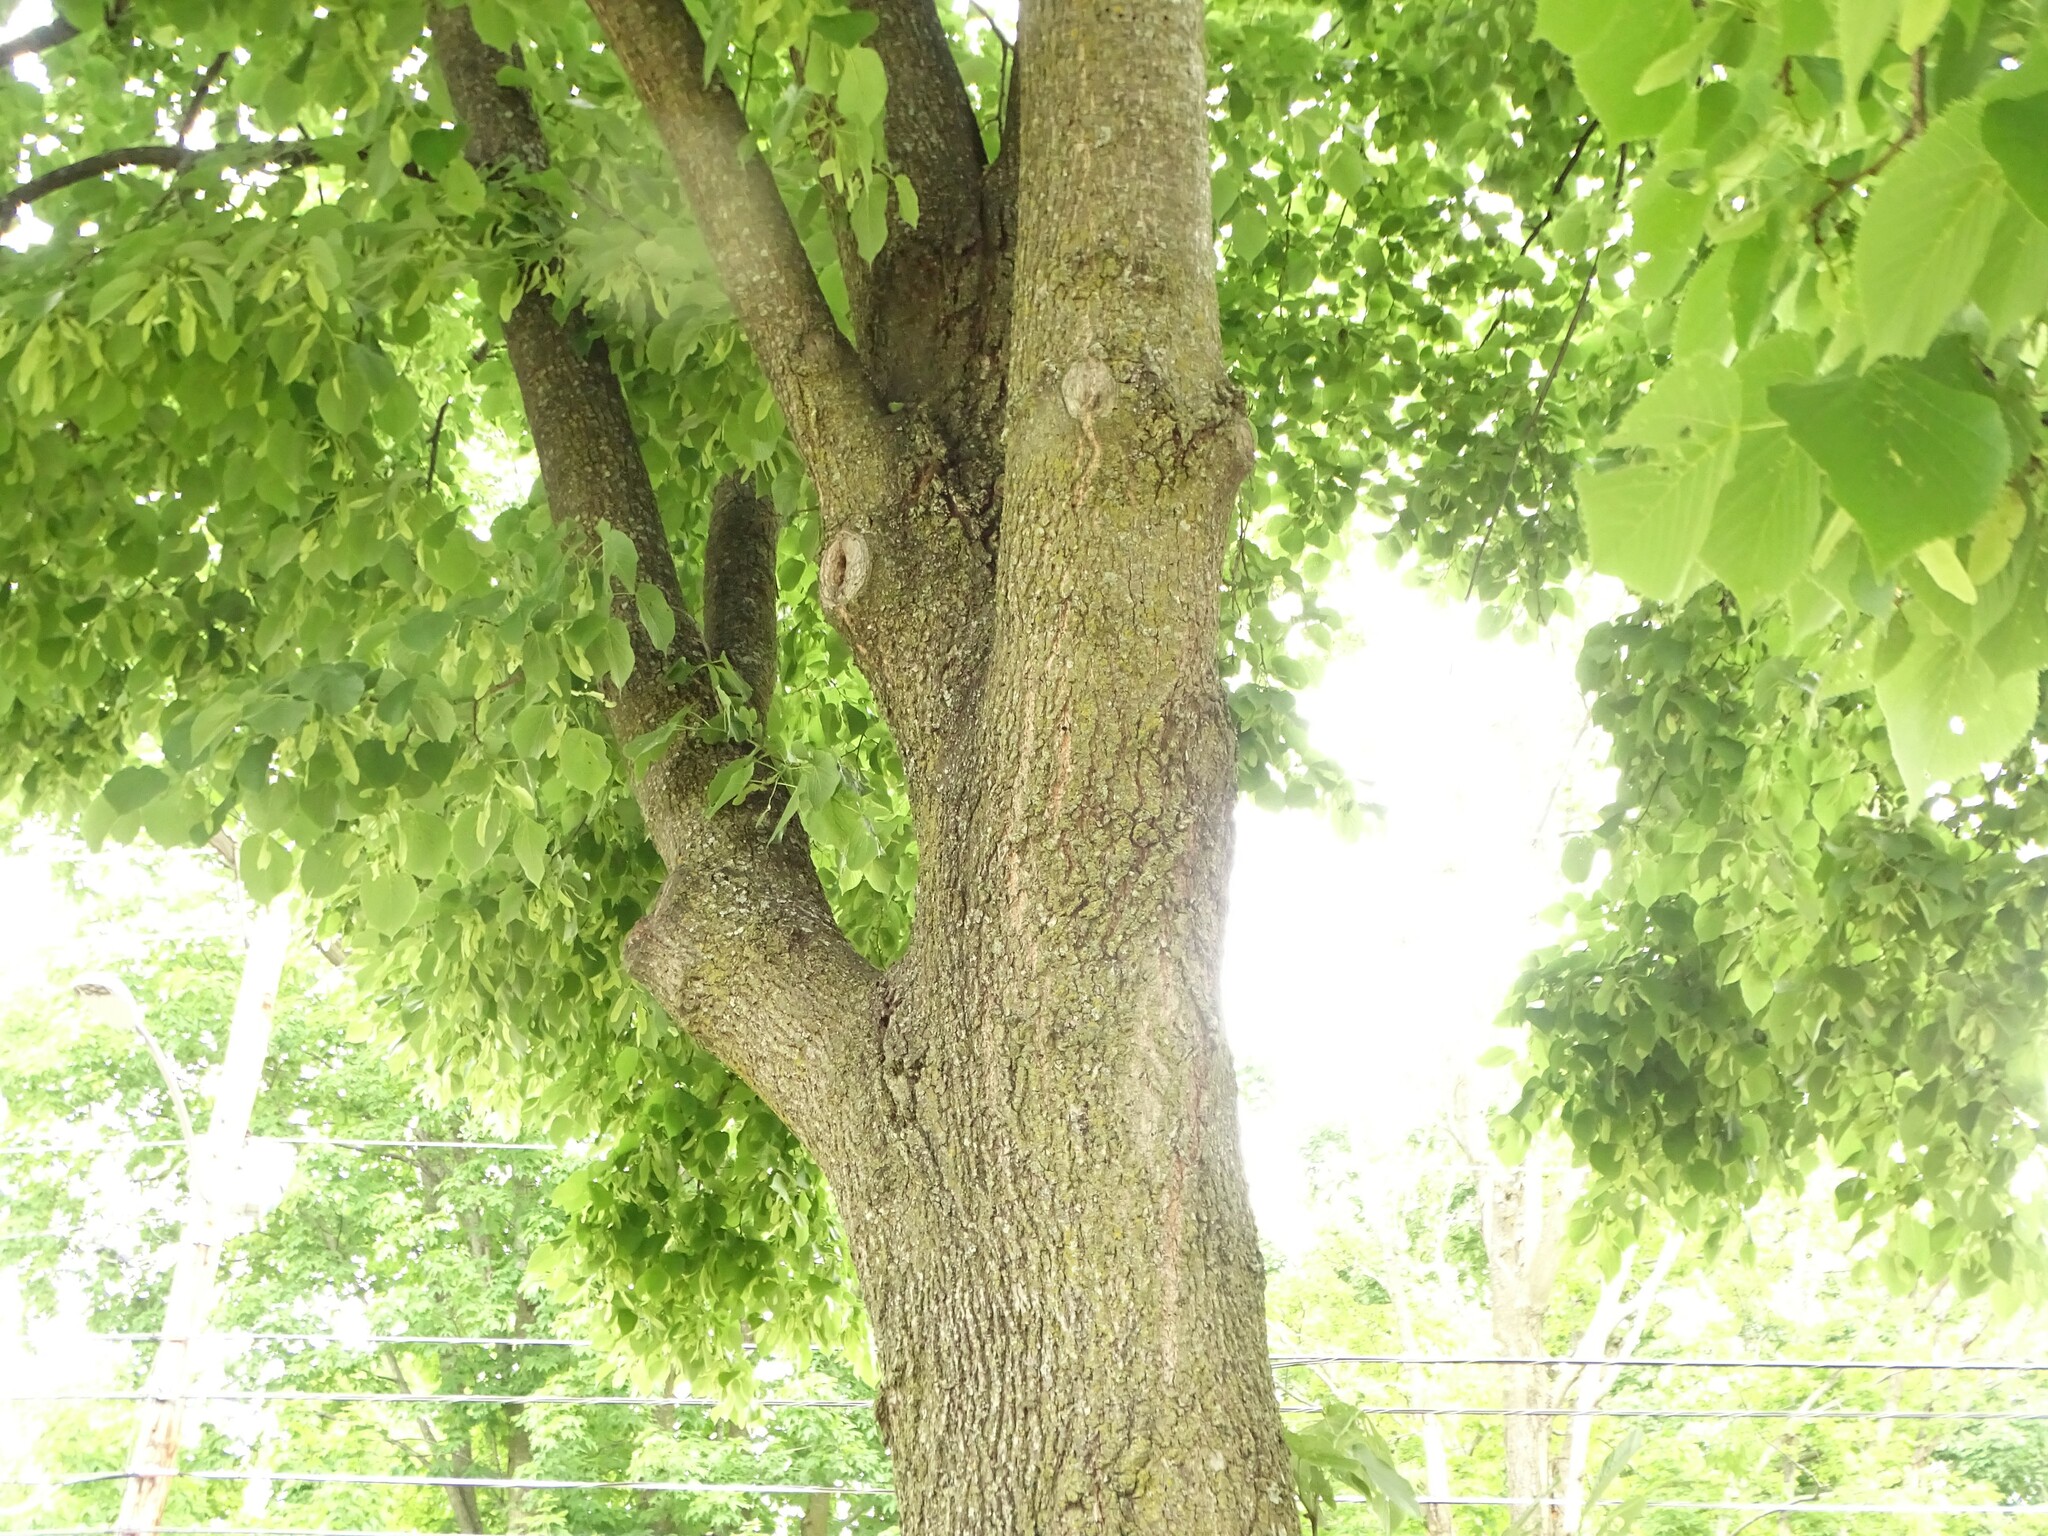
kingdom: Plantae
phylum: Tracheophyta
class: Magnoliopsida
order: Malvales
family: Malvaceae
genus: Tilia
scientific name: Tilia cordata
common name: Small-leaved lime
